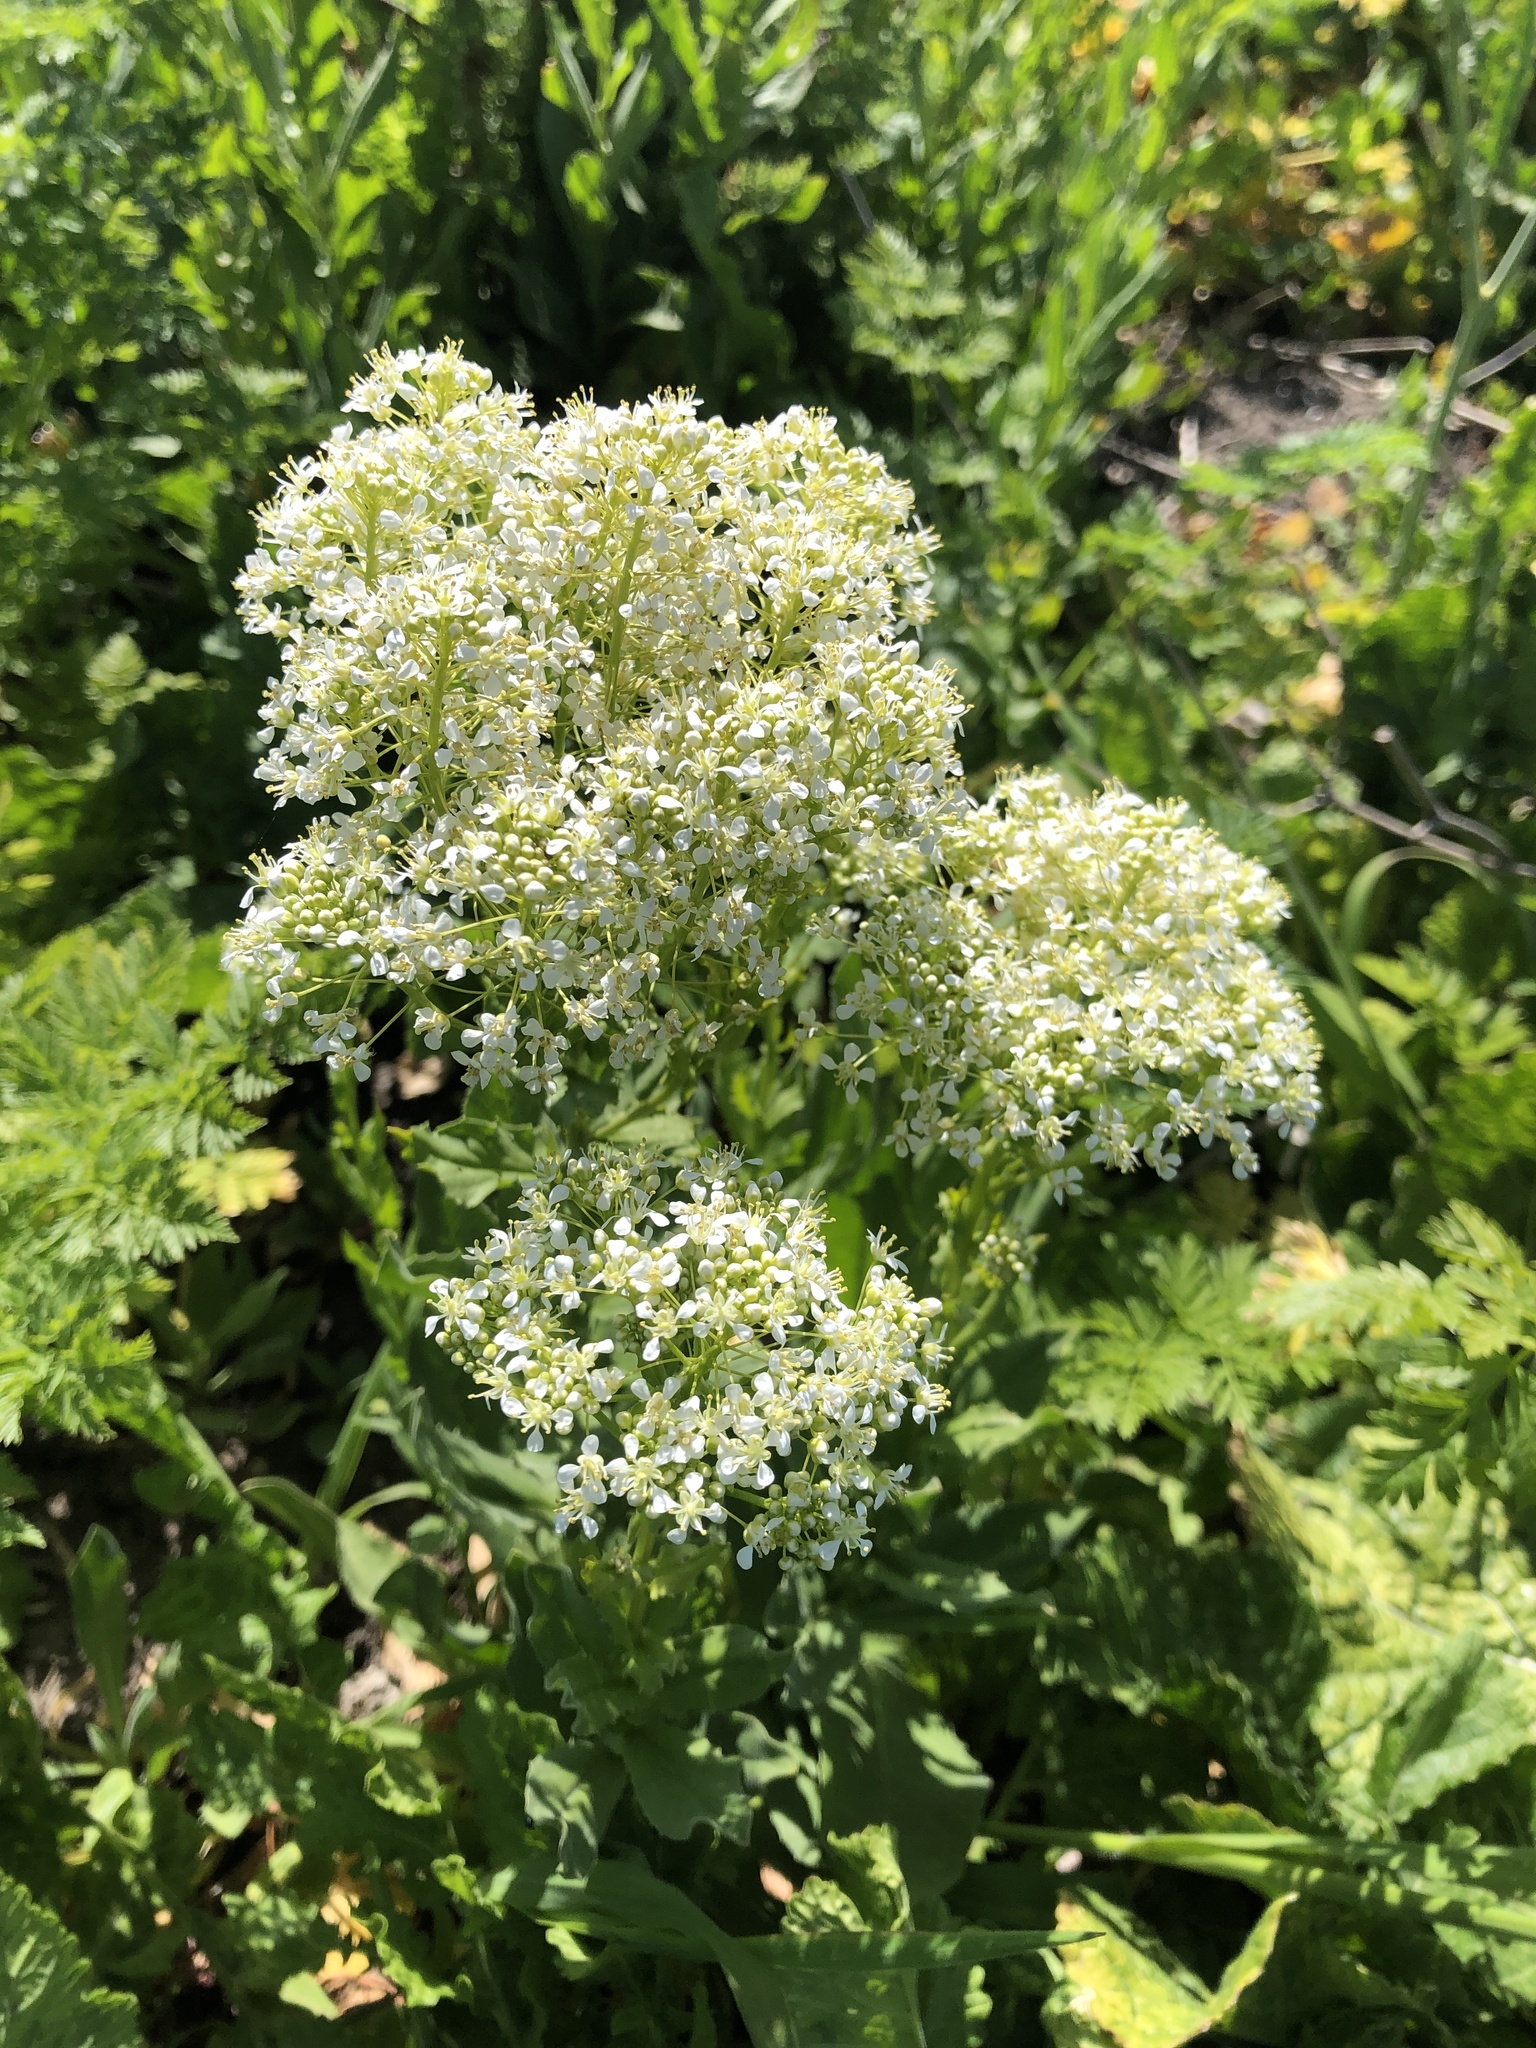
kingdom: Plantae
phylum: Tracheophyta
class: Magnoliopsida
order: Brassicales
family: Brassicaceae
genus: Lepidium
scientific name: Lepidium draba
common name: Hoary cress
